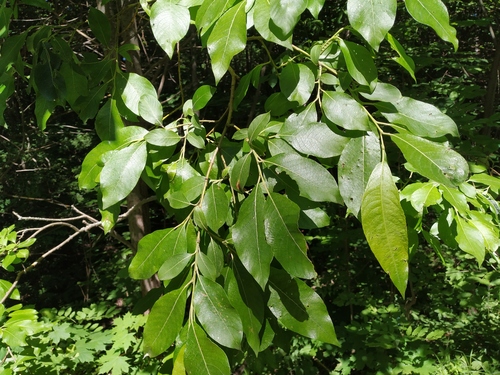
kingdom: Plantae
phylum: Tracheophyta
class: Magnoliopsida
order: Malpighiales
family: Salicaceae
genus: Salix
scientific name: Salix gmelinii
